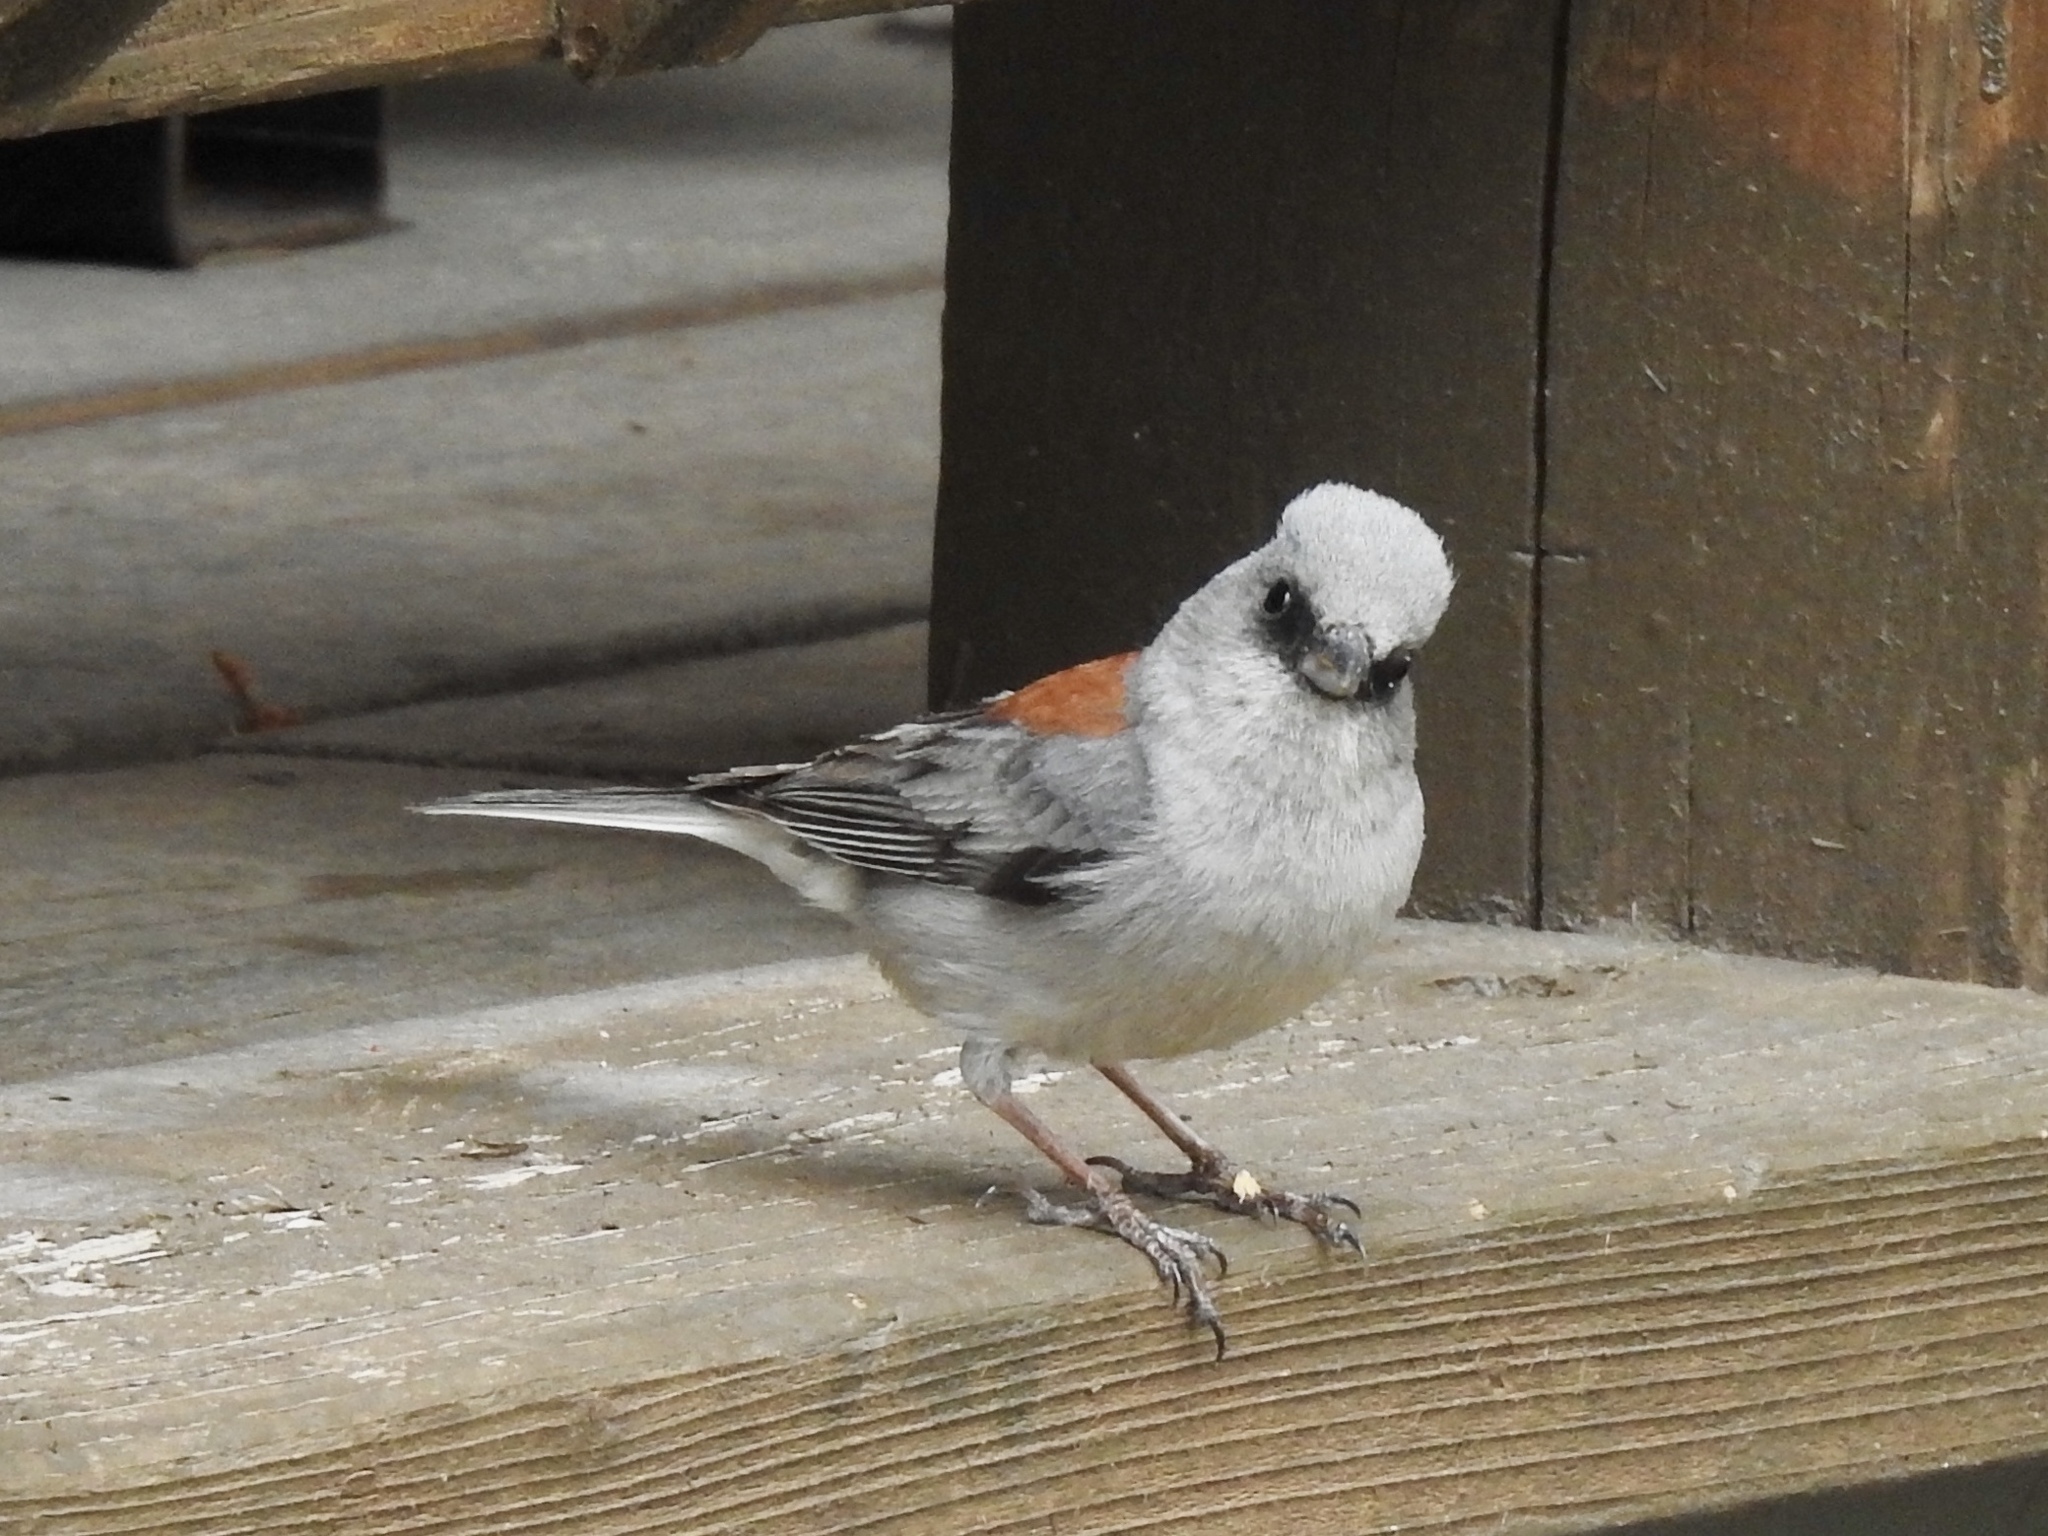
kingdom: Animalia
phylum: Chordata
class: Aves
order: Passeriformes
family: Passerellidae
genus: Junco
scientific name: Junco hyemalis
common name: Dark-eyed junco
